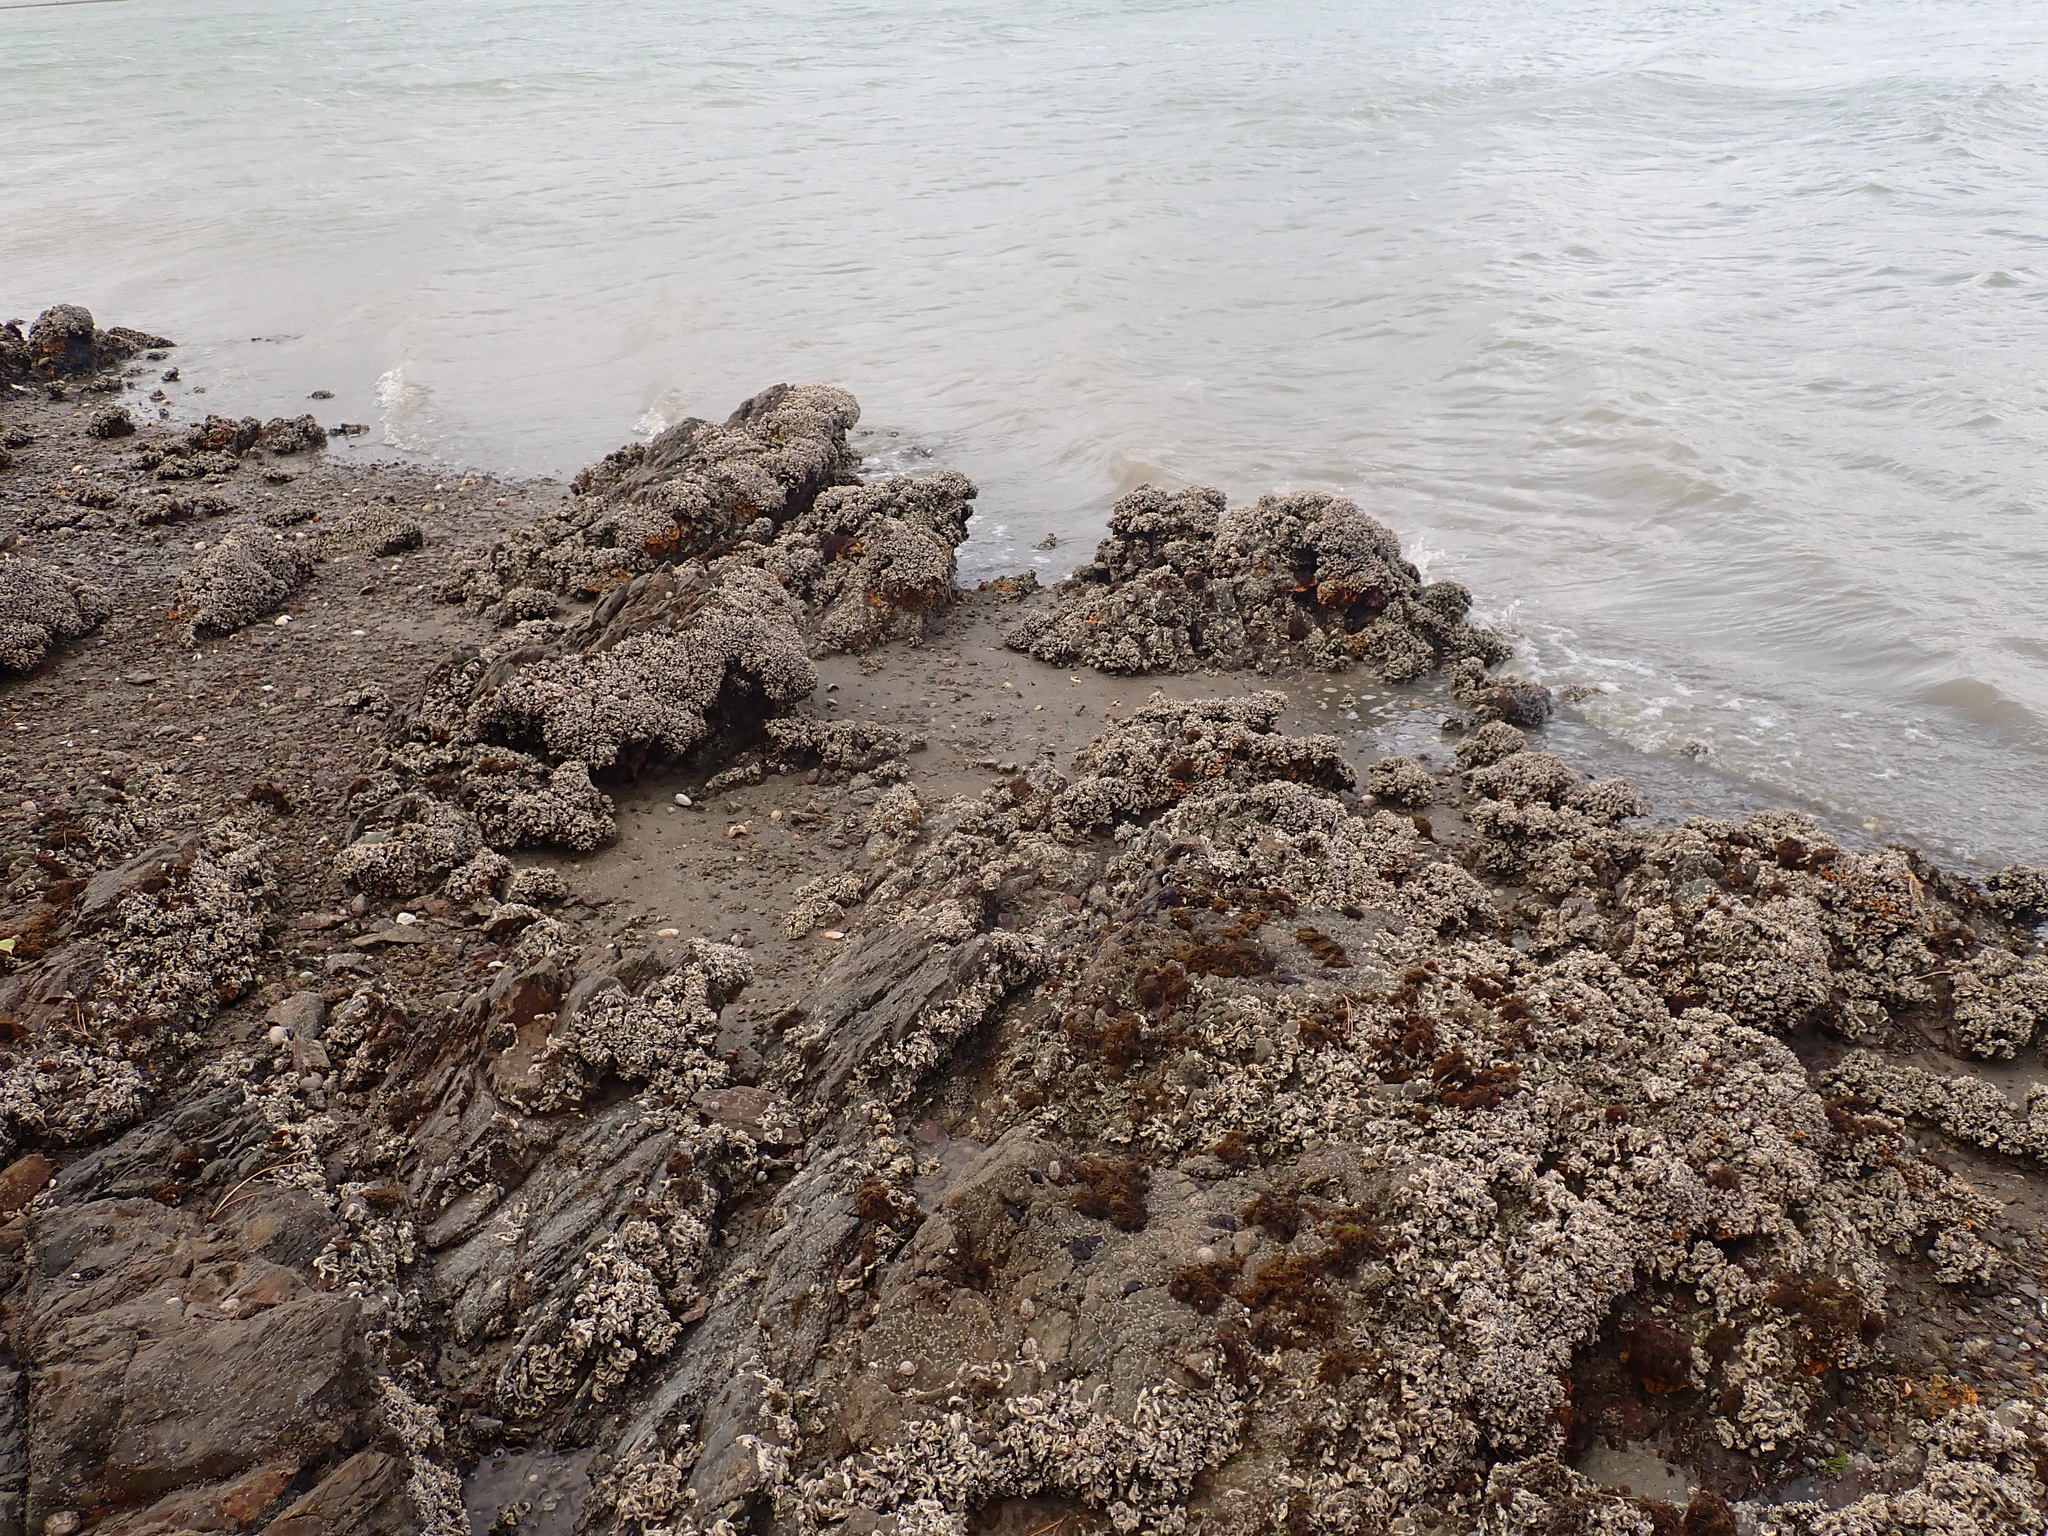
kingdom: Animalia
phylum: Annelida
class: Polychaeta
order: Sabellida
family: Serpulidae
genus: Spirobranchus
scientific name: Spirobranchus cariniferus
